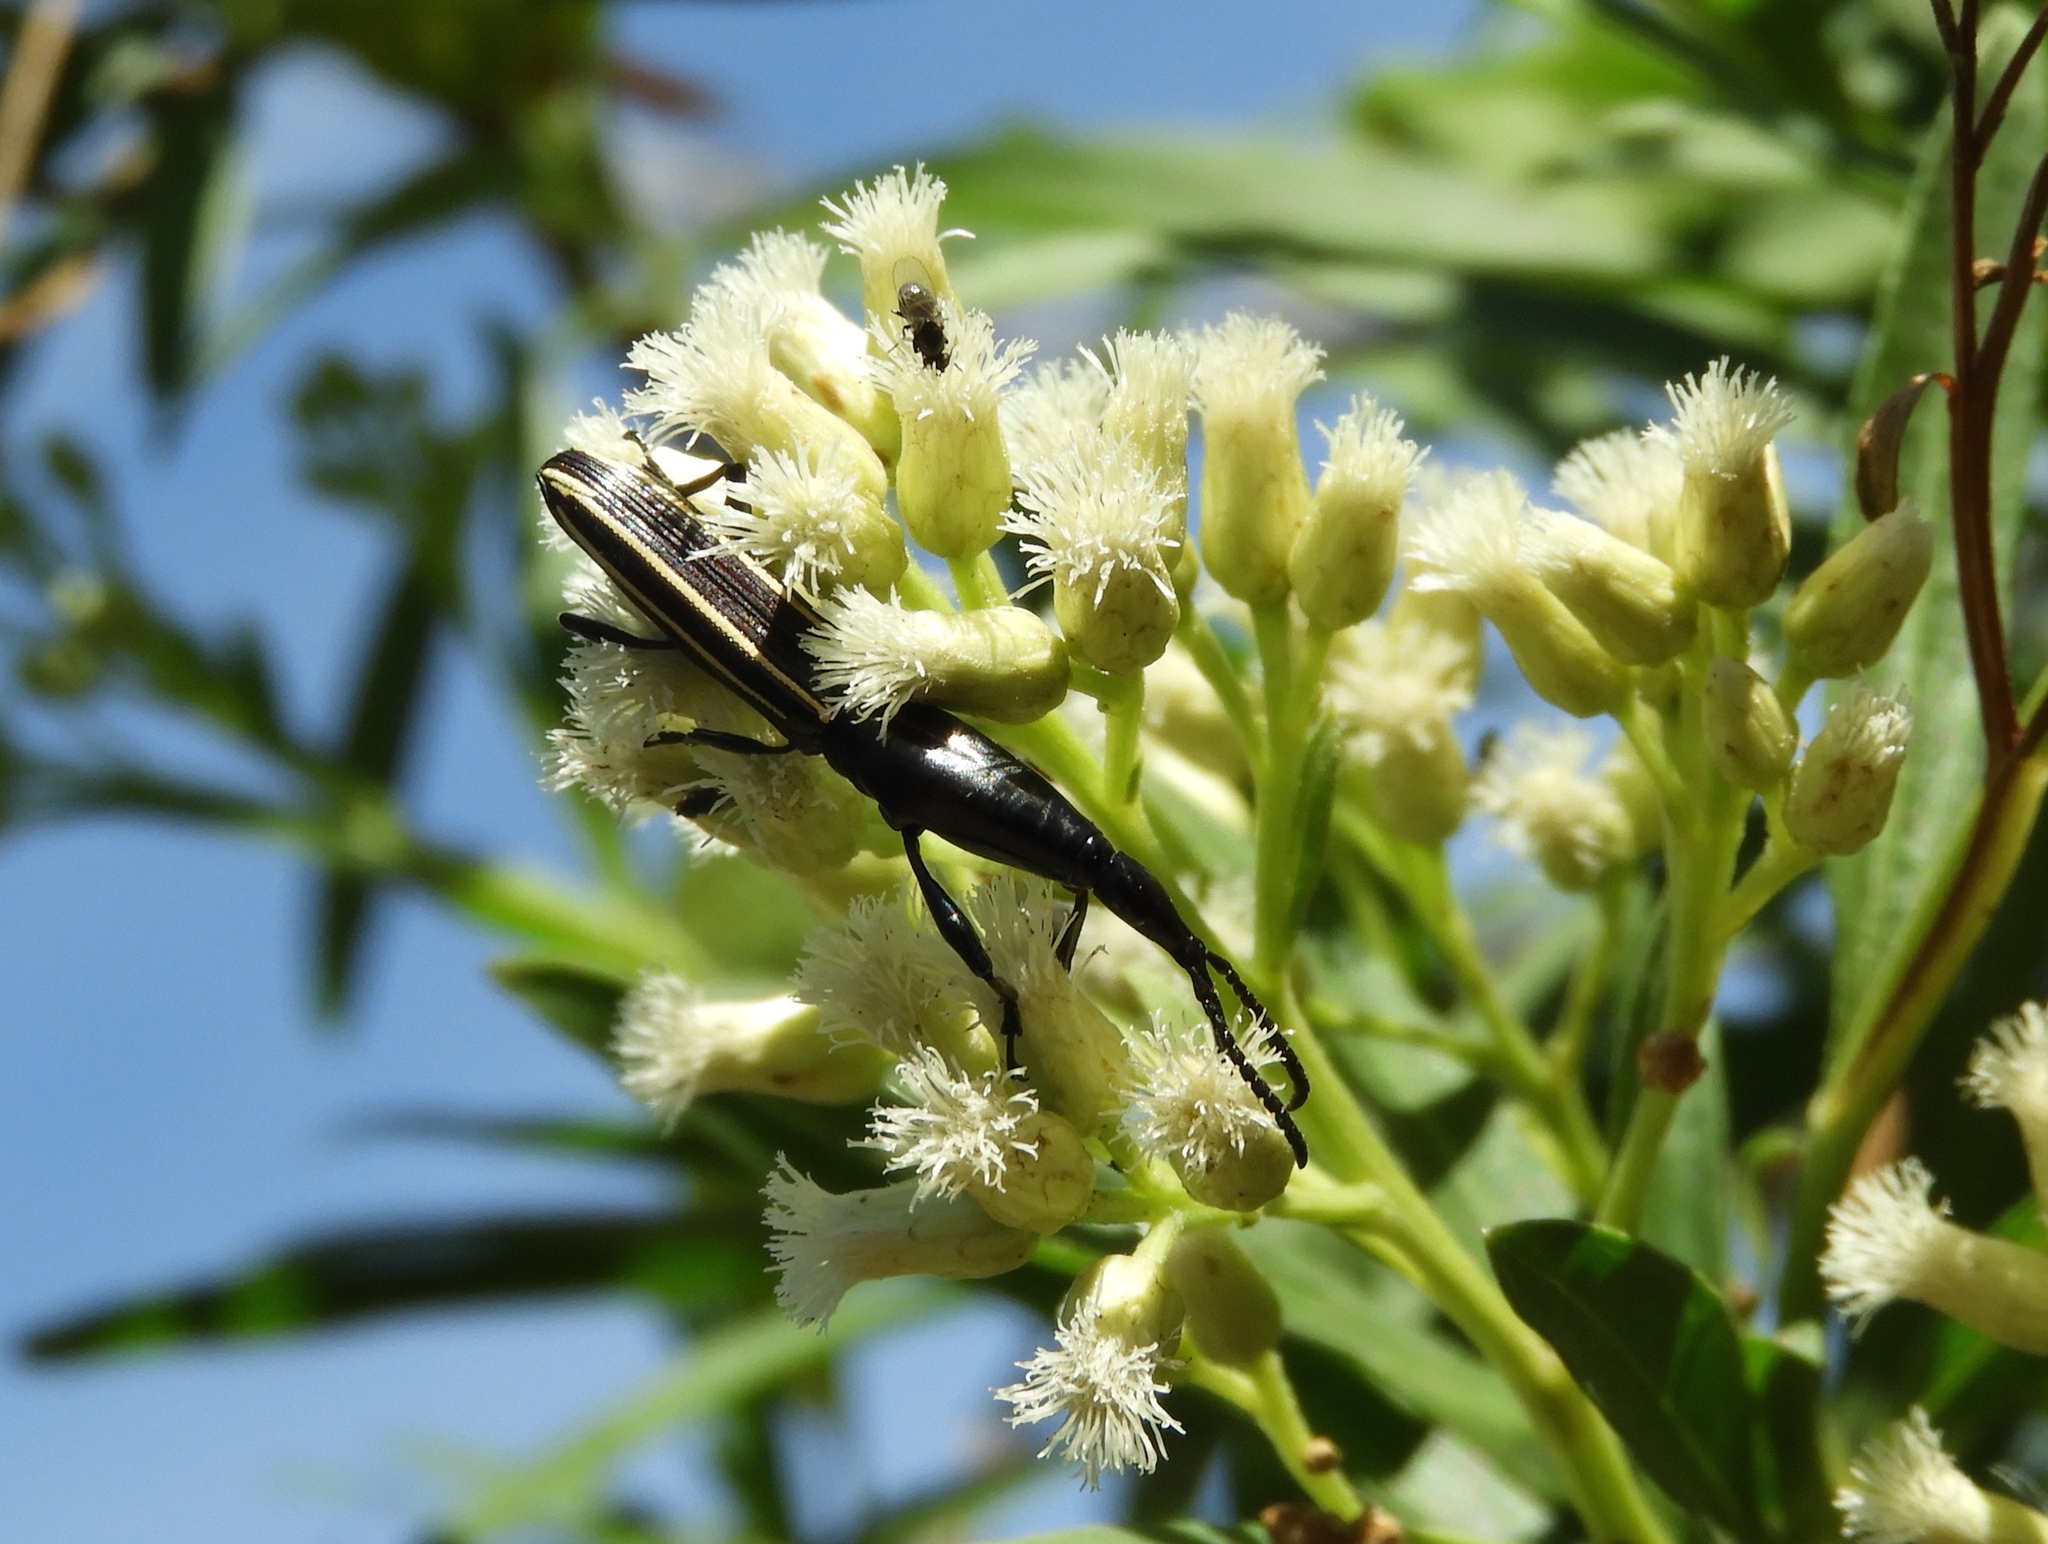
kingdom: Animalia
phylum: Arthropoda
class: Insecta
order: Coleoptera
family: Brentidae
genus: Brentus
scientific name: Brentus
